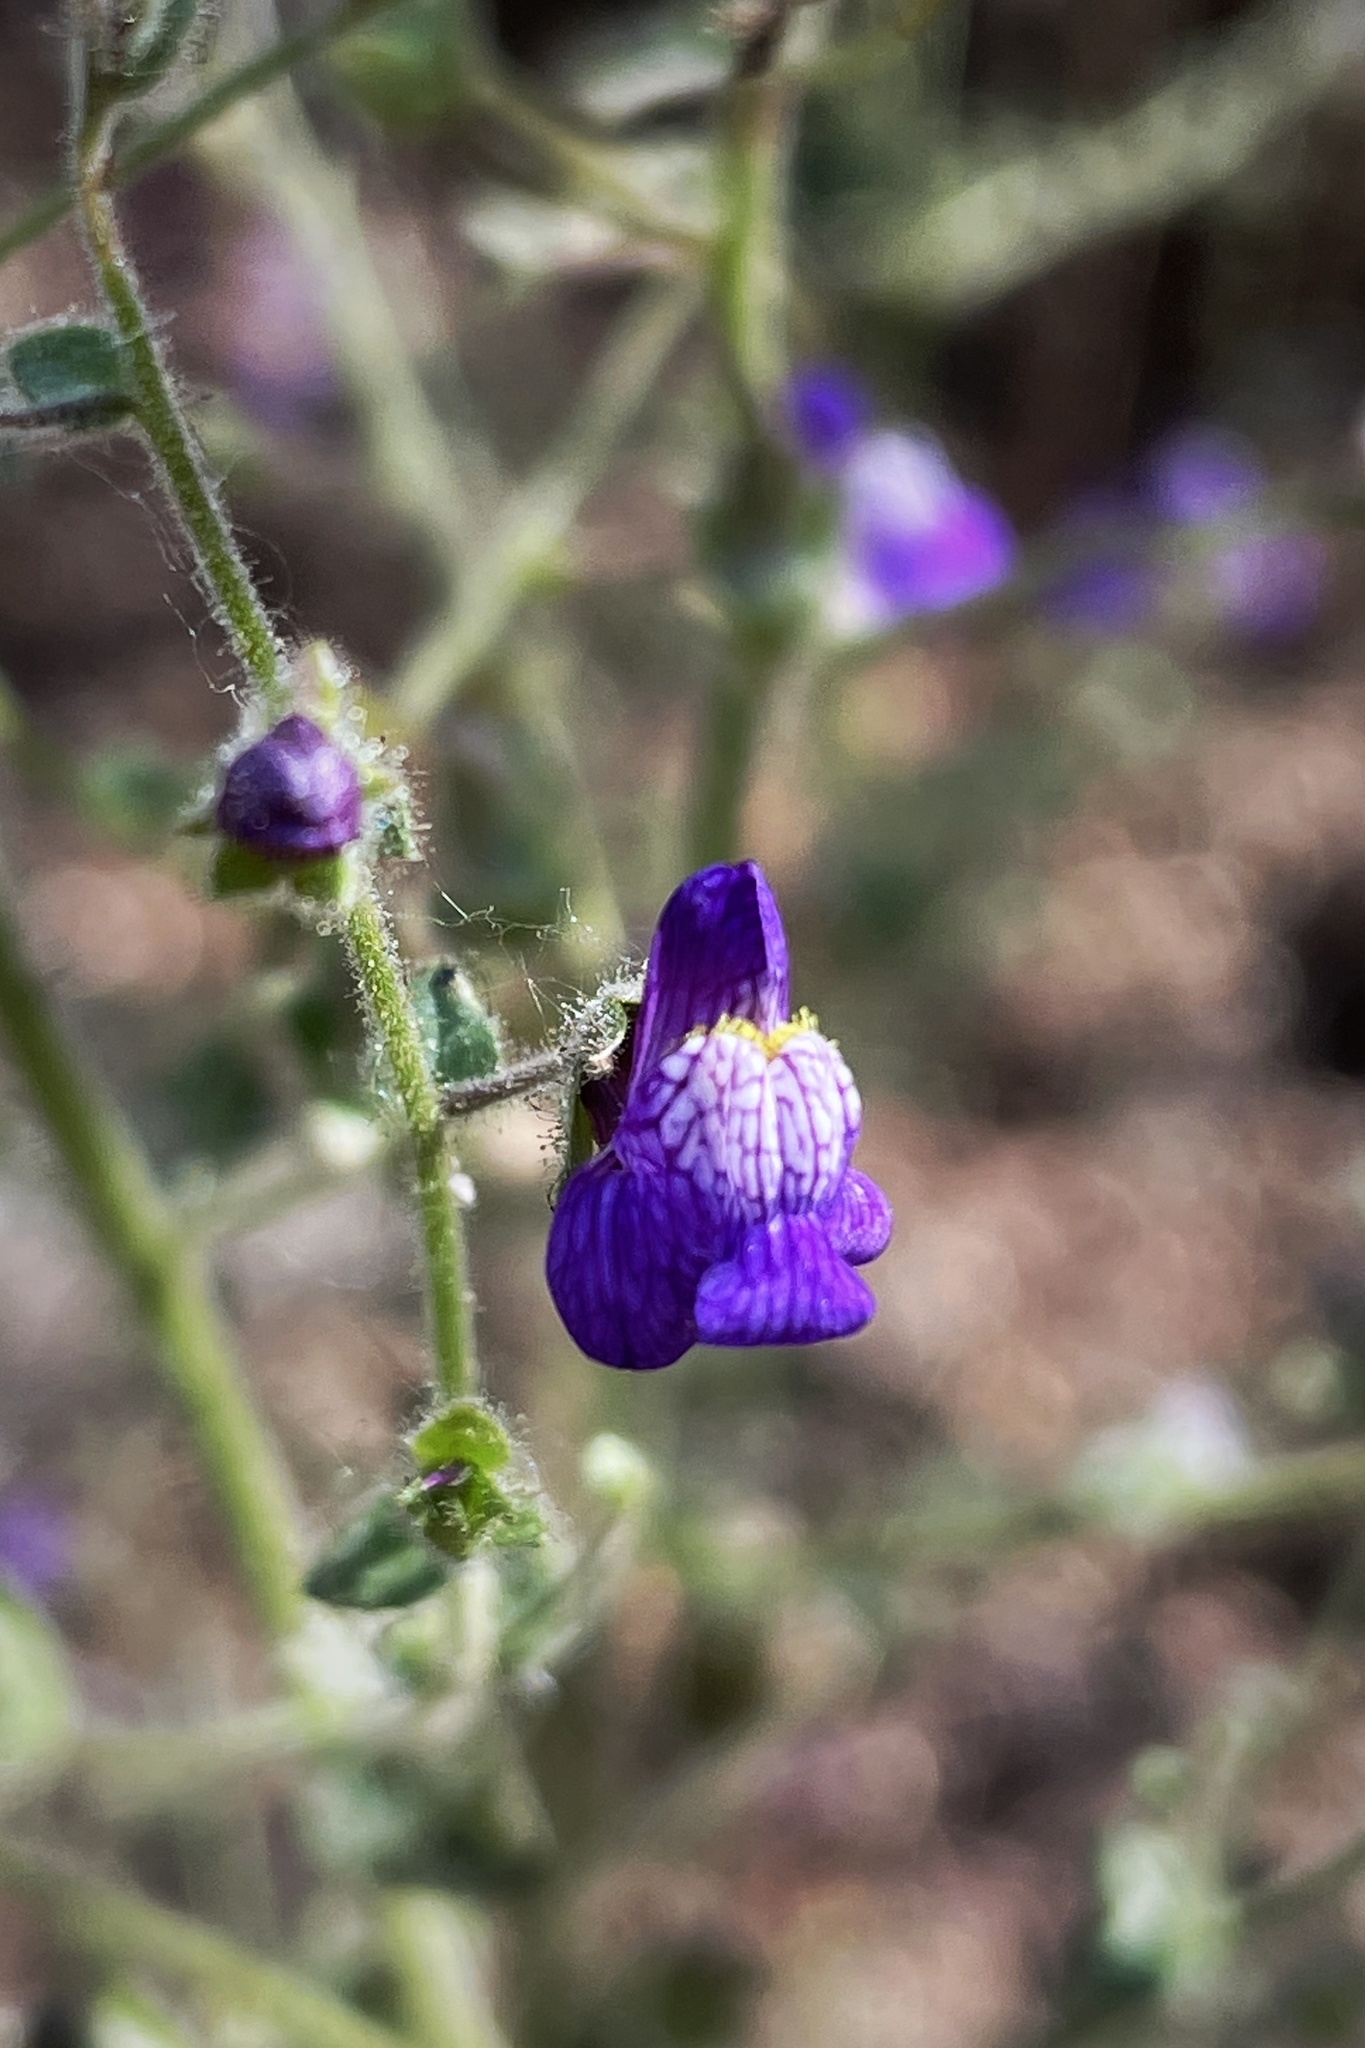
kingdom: Plantae
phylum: Tracheophyta
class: Magnoliopsida
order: Lamiales
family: Plantaginaceae
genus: Sairocarpus
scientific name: Sairocarpus nuttallianus
